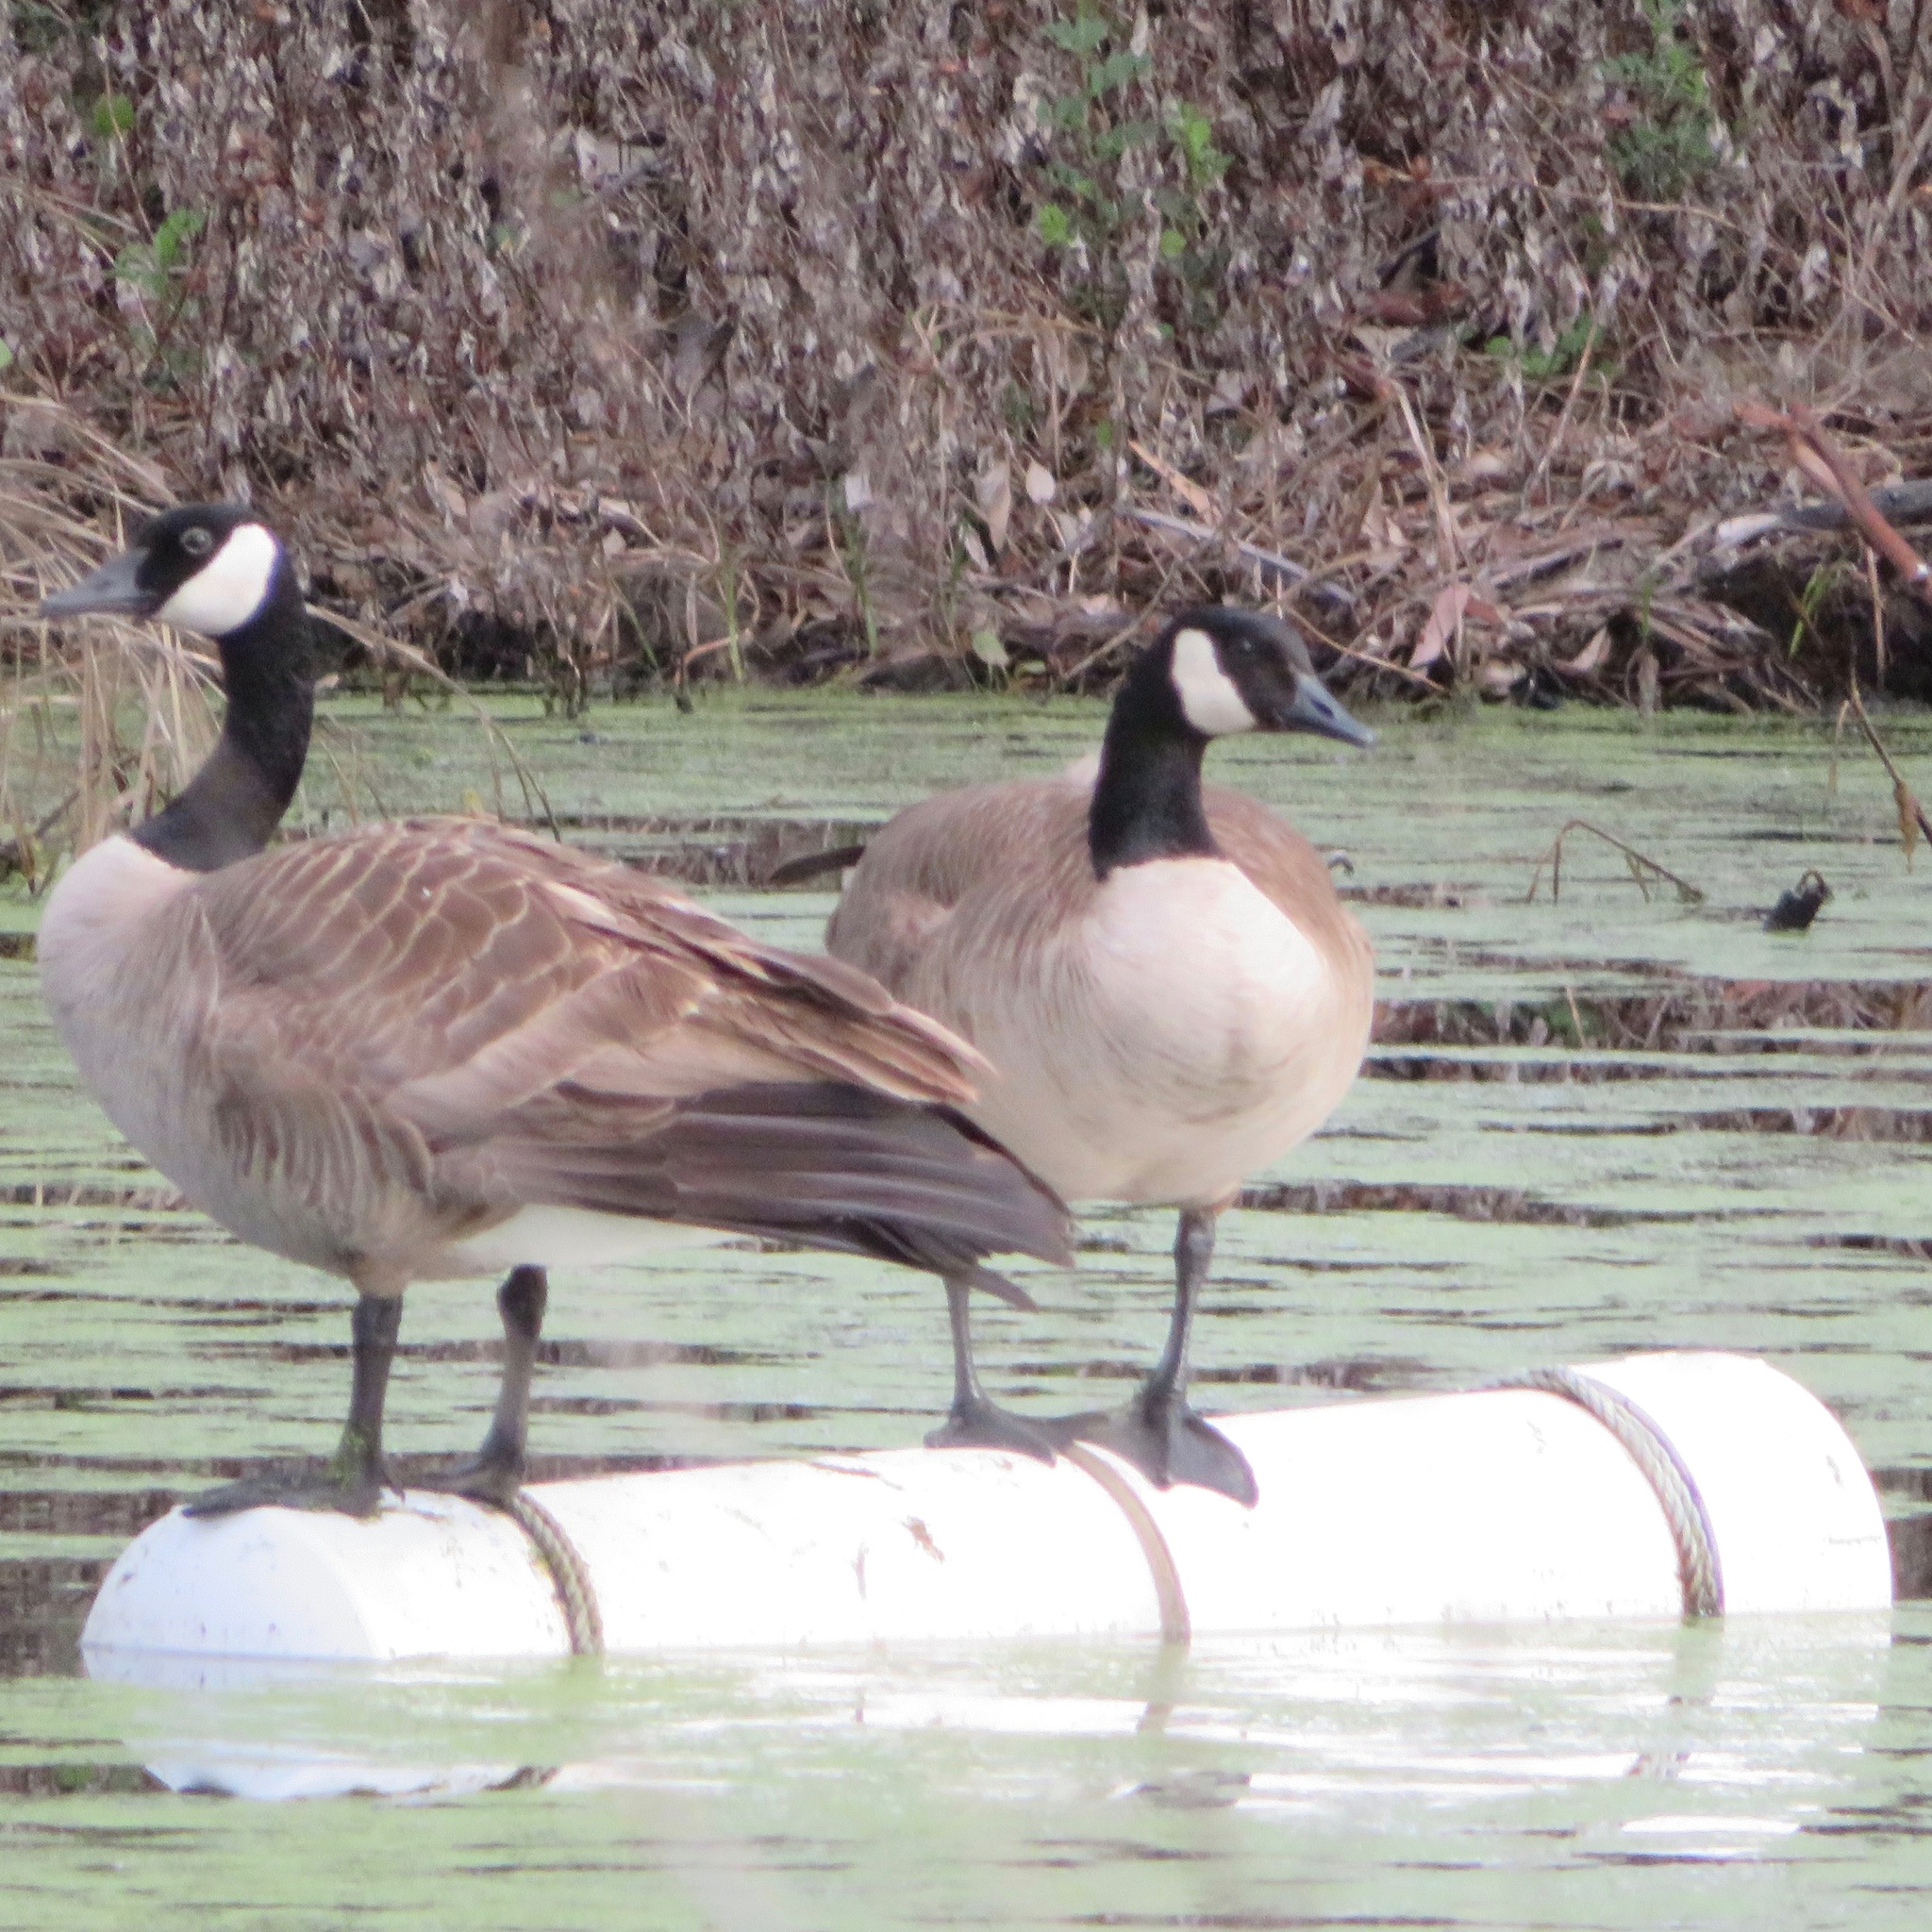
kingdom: Animalia
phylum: Chordata
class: Aves
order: Anseriformes
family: Anatidae
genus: Branta
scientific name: Branta canadensis
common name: Canada goose
